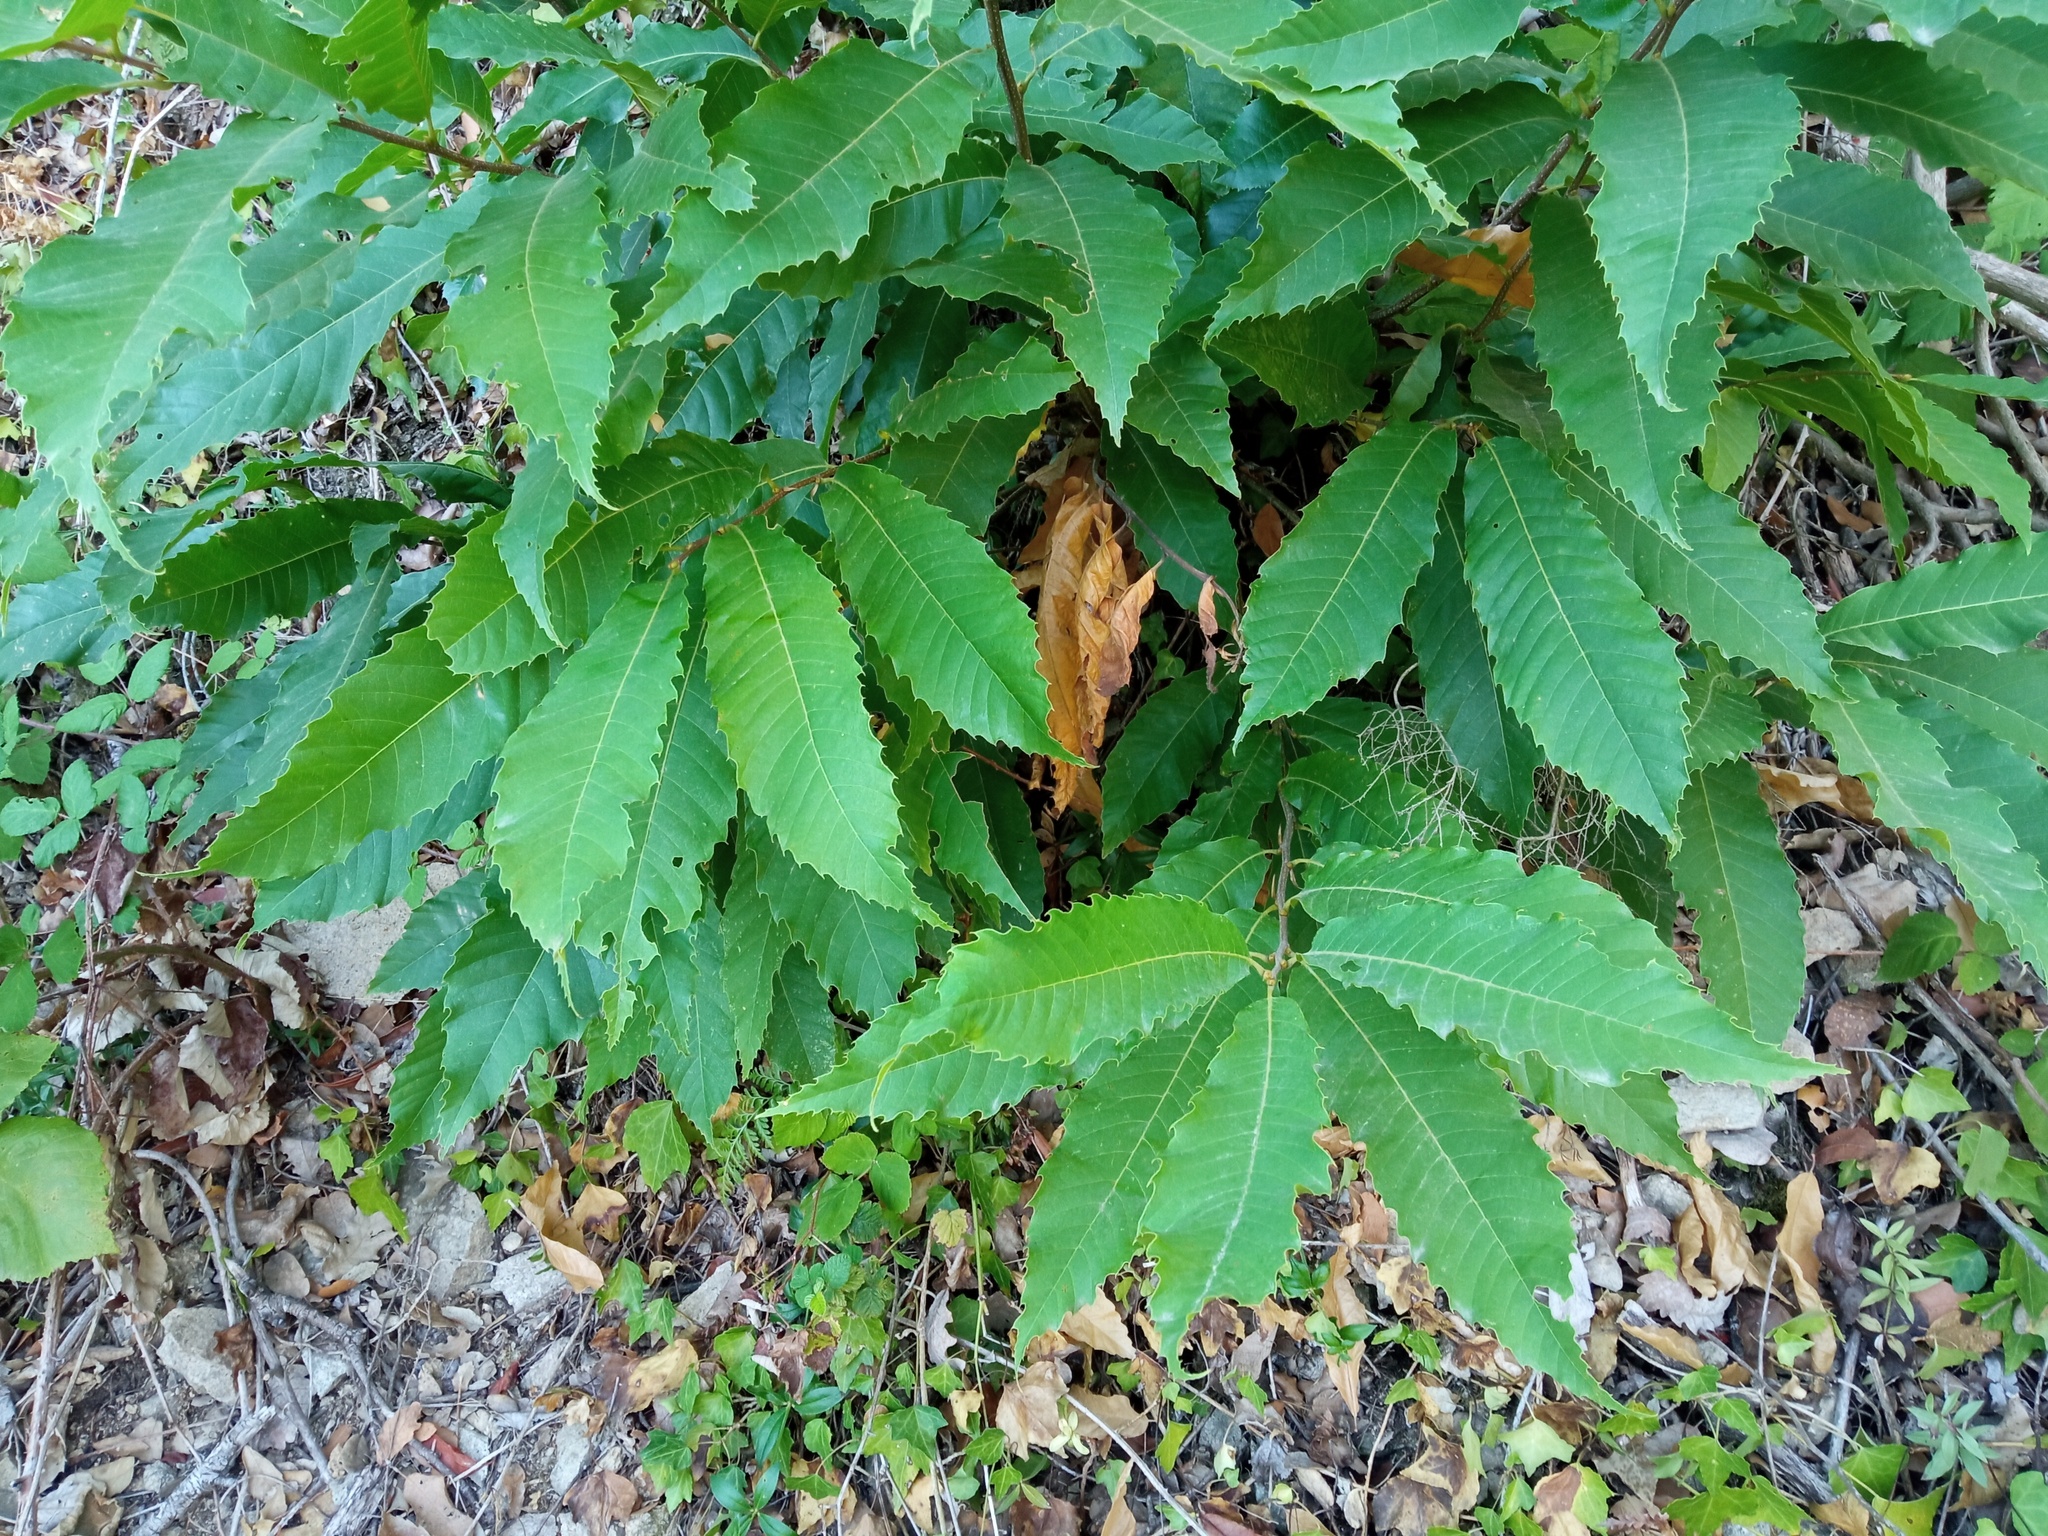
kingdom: Plantae
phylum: Tracheophyta
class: Magnoliopsida
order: Fagales
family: Fagaceae
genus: Castanea
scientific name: Castanea sativa
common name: Sweet chestnut
